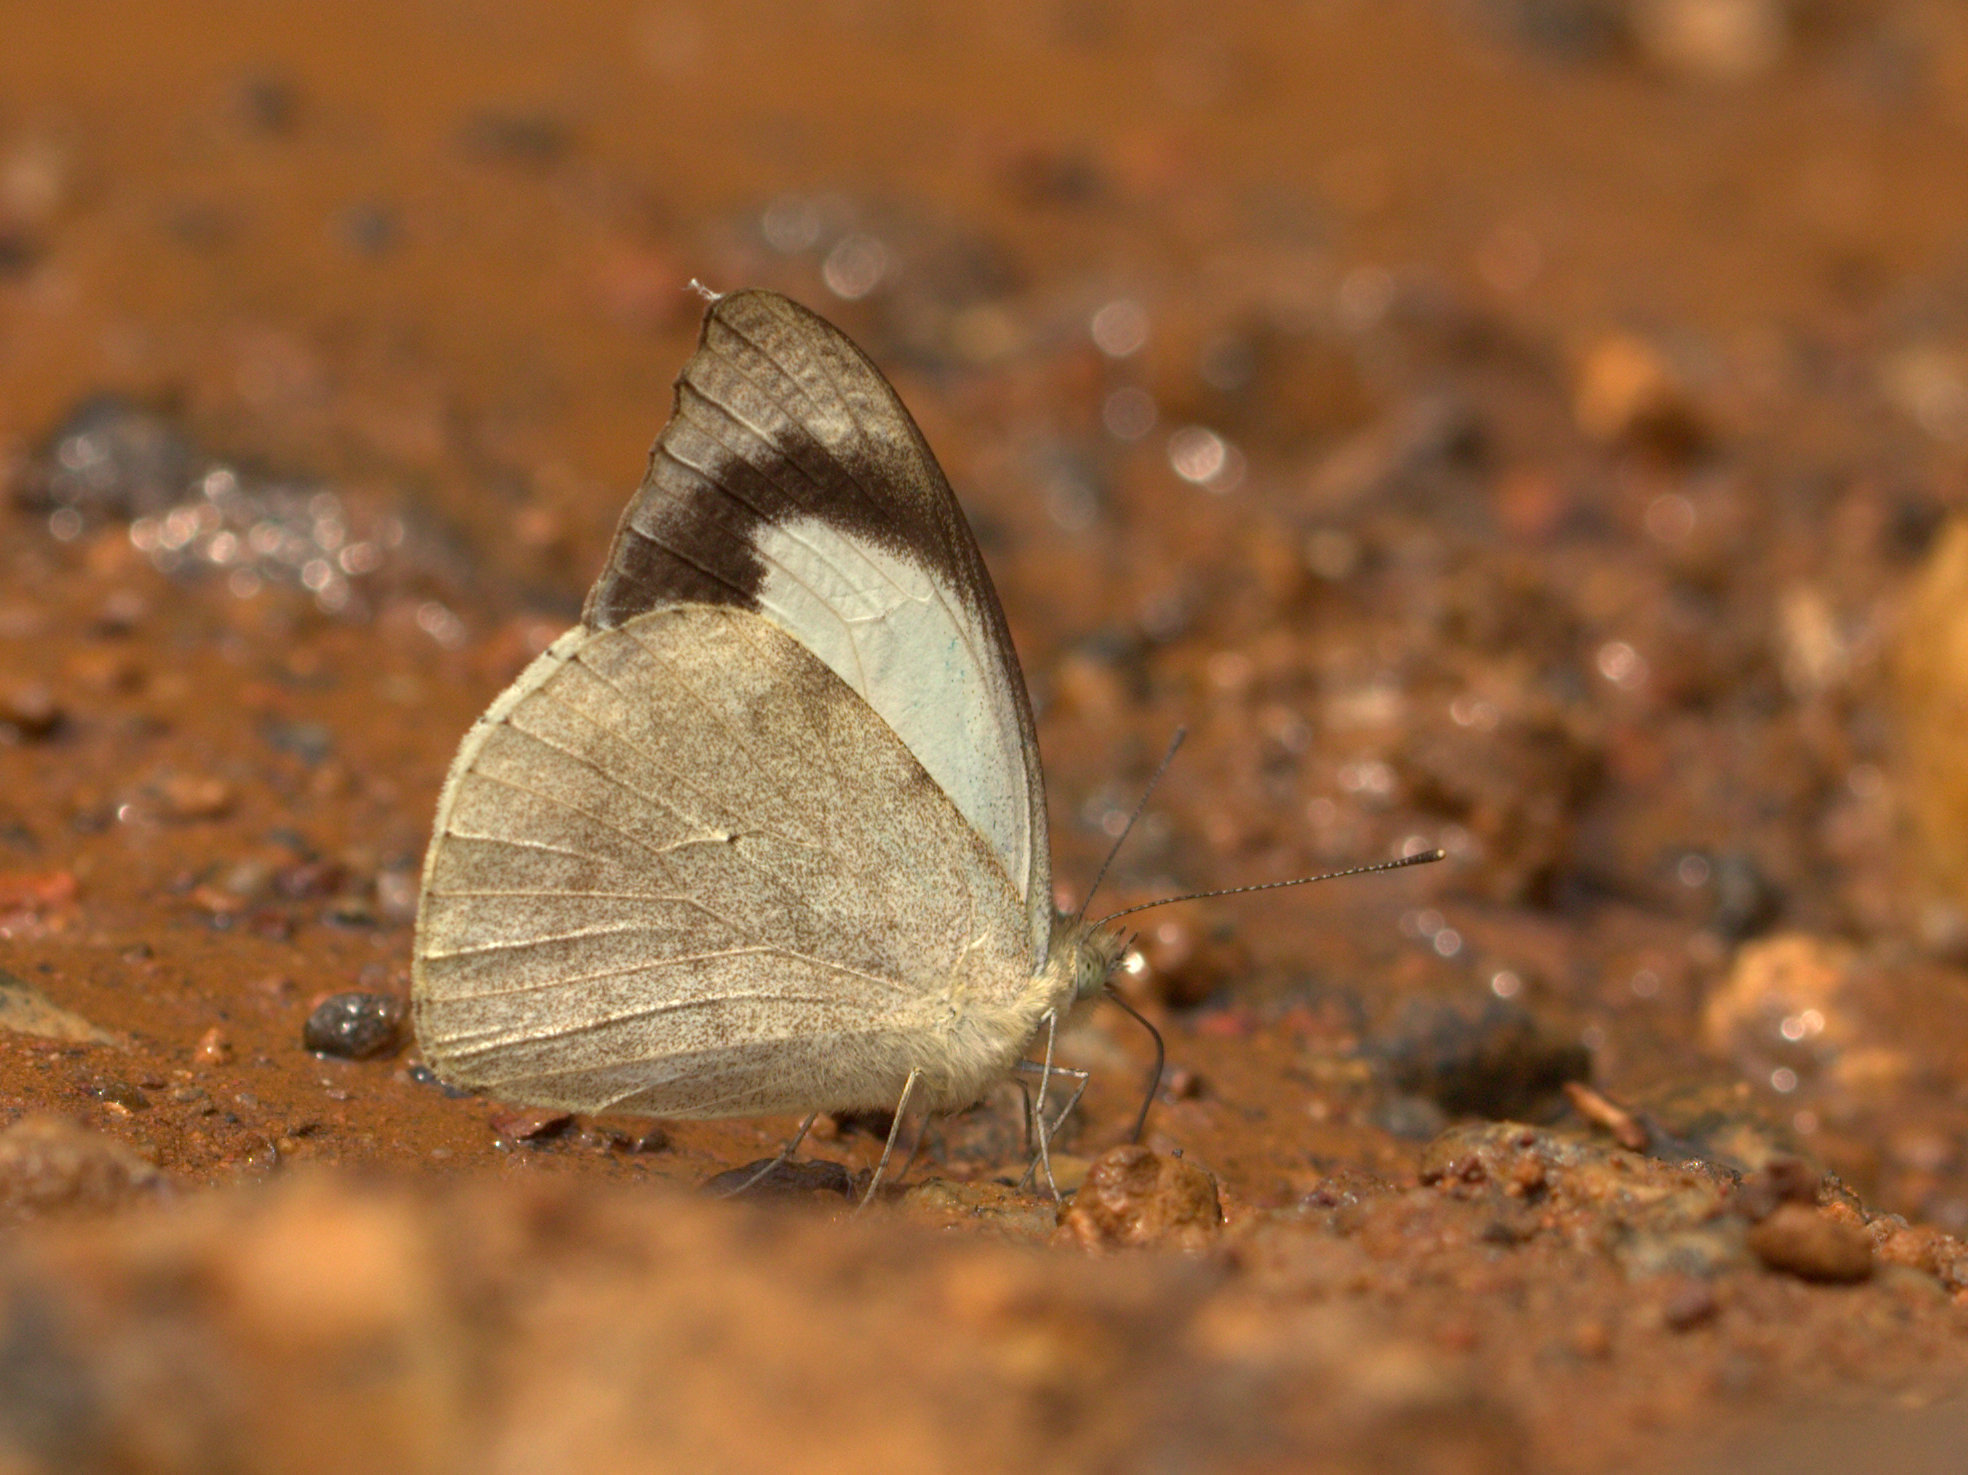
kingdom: Animalia
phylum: Arthropoda
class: Insecta
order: Lepidoptera
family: Pieridae
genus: Appias
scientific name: Appias indra
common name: Plain puffin
